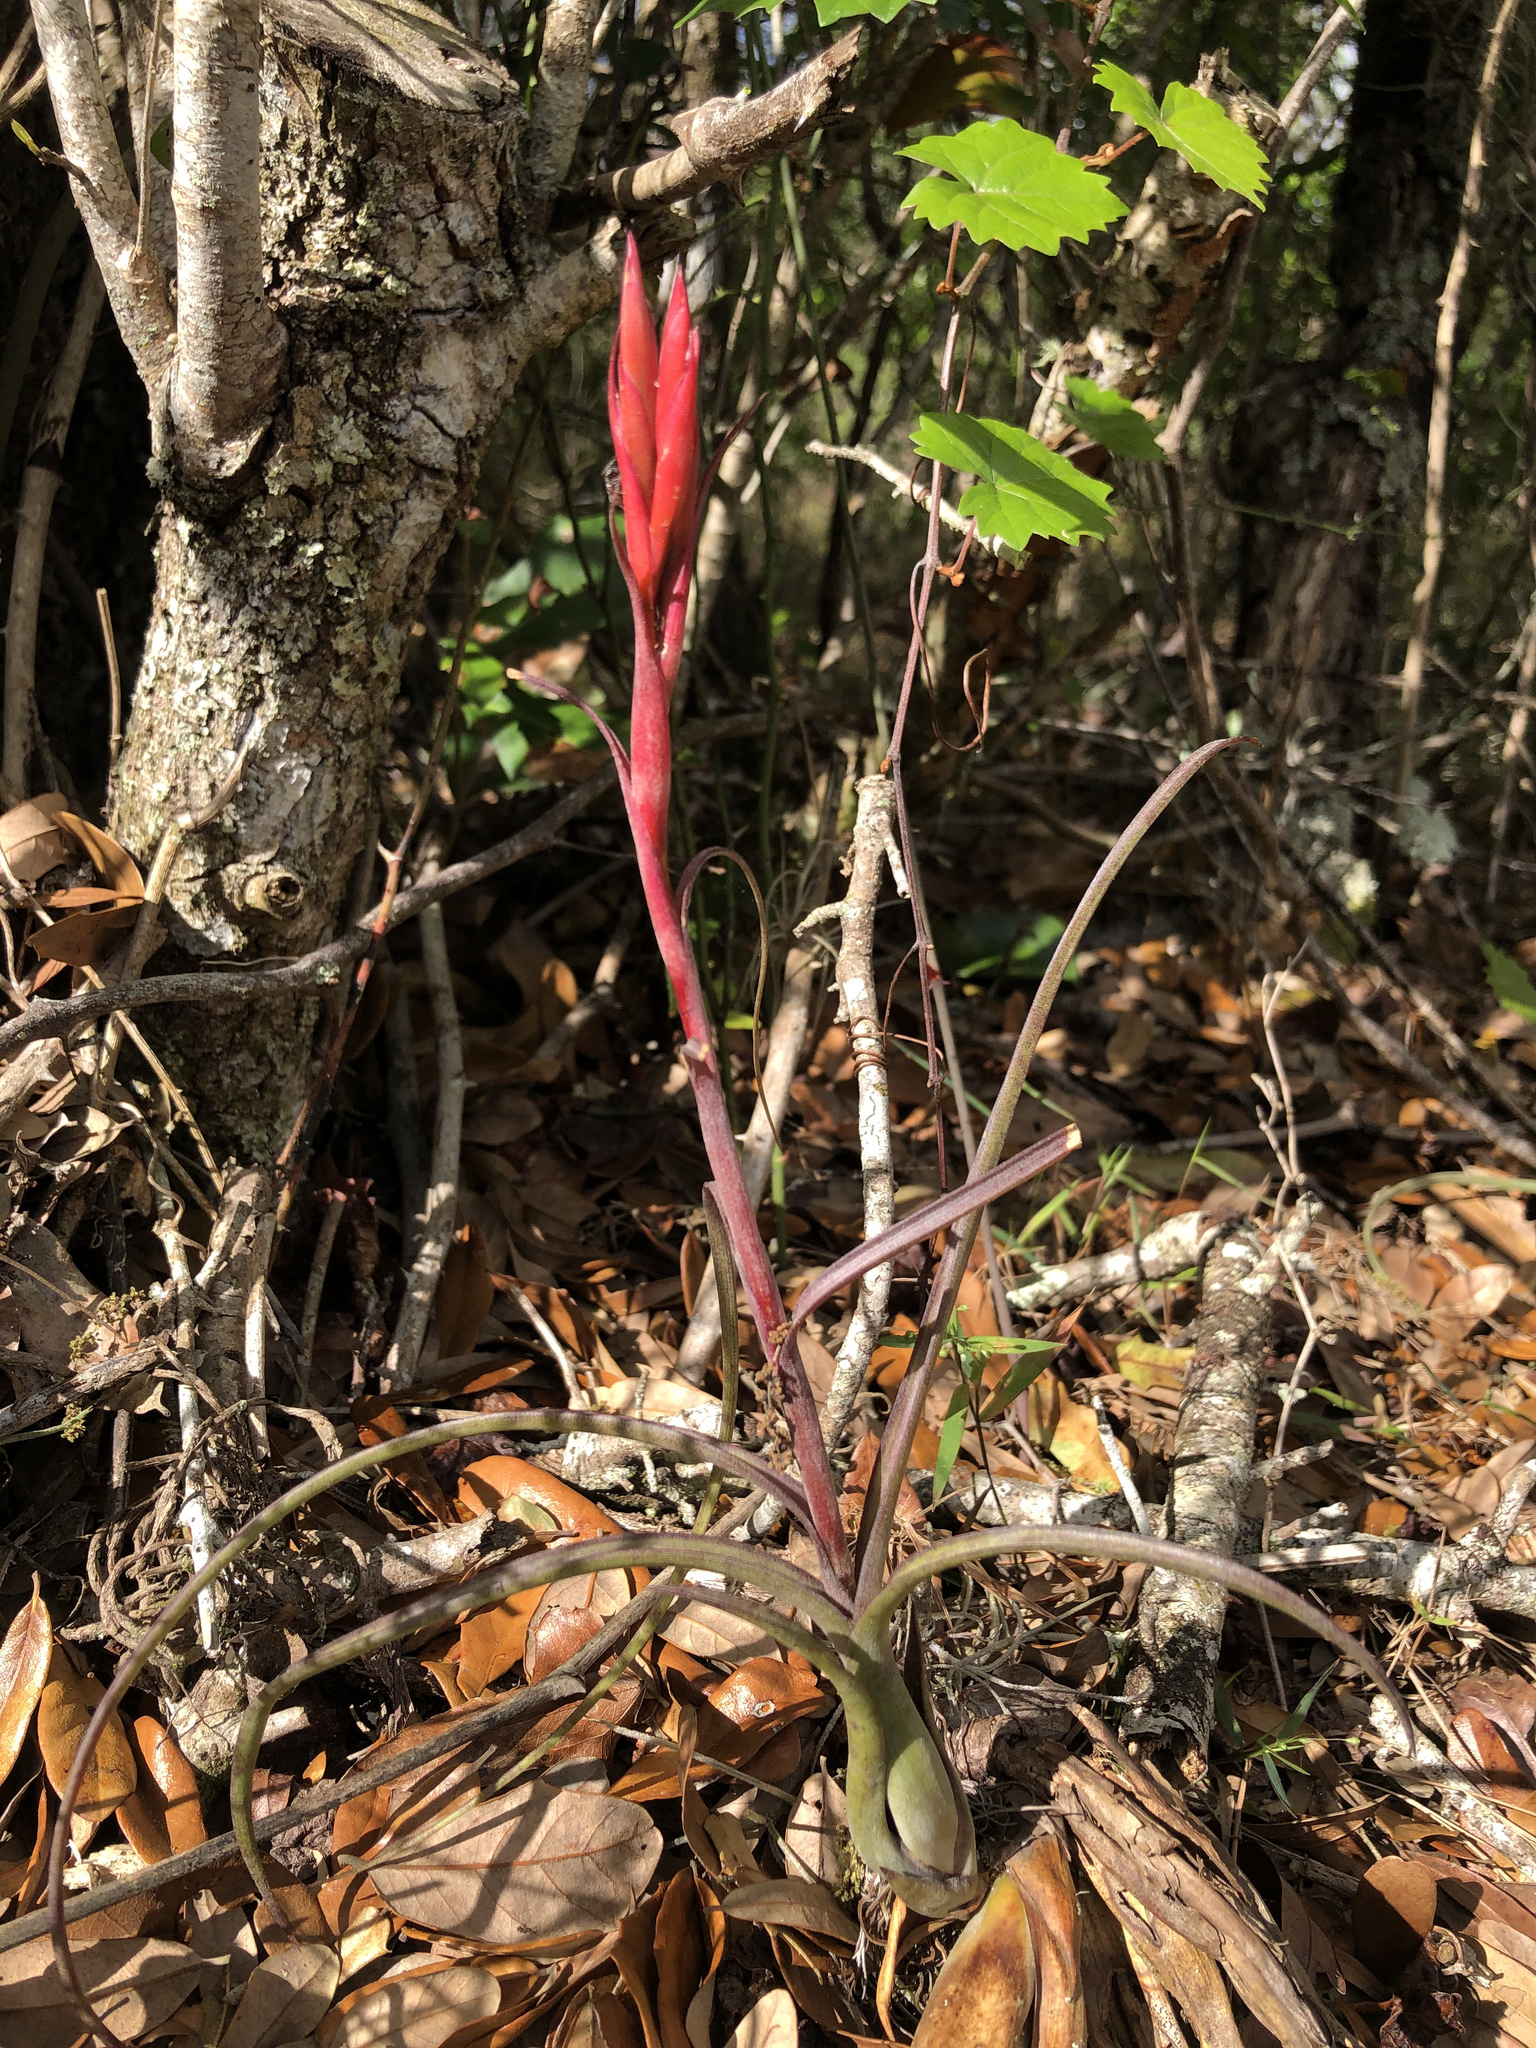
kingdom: Plantae
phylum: Tracheophyta
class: Liliopsida
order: Poales
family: Bromeliaceae
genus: Tillandsia
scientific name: Tillandsia balbisiana
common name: Northern needleleaf
